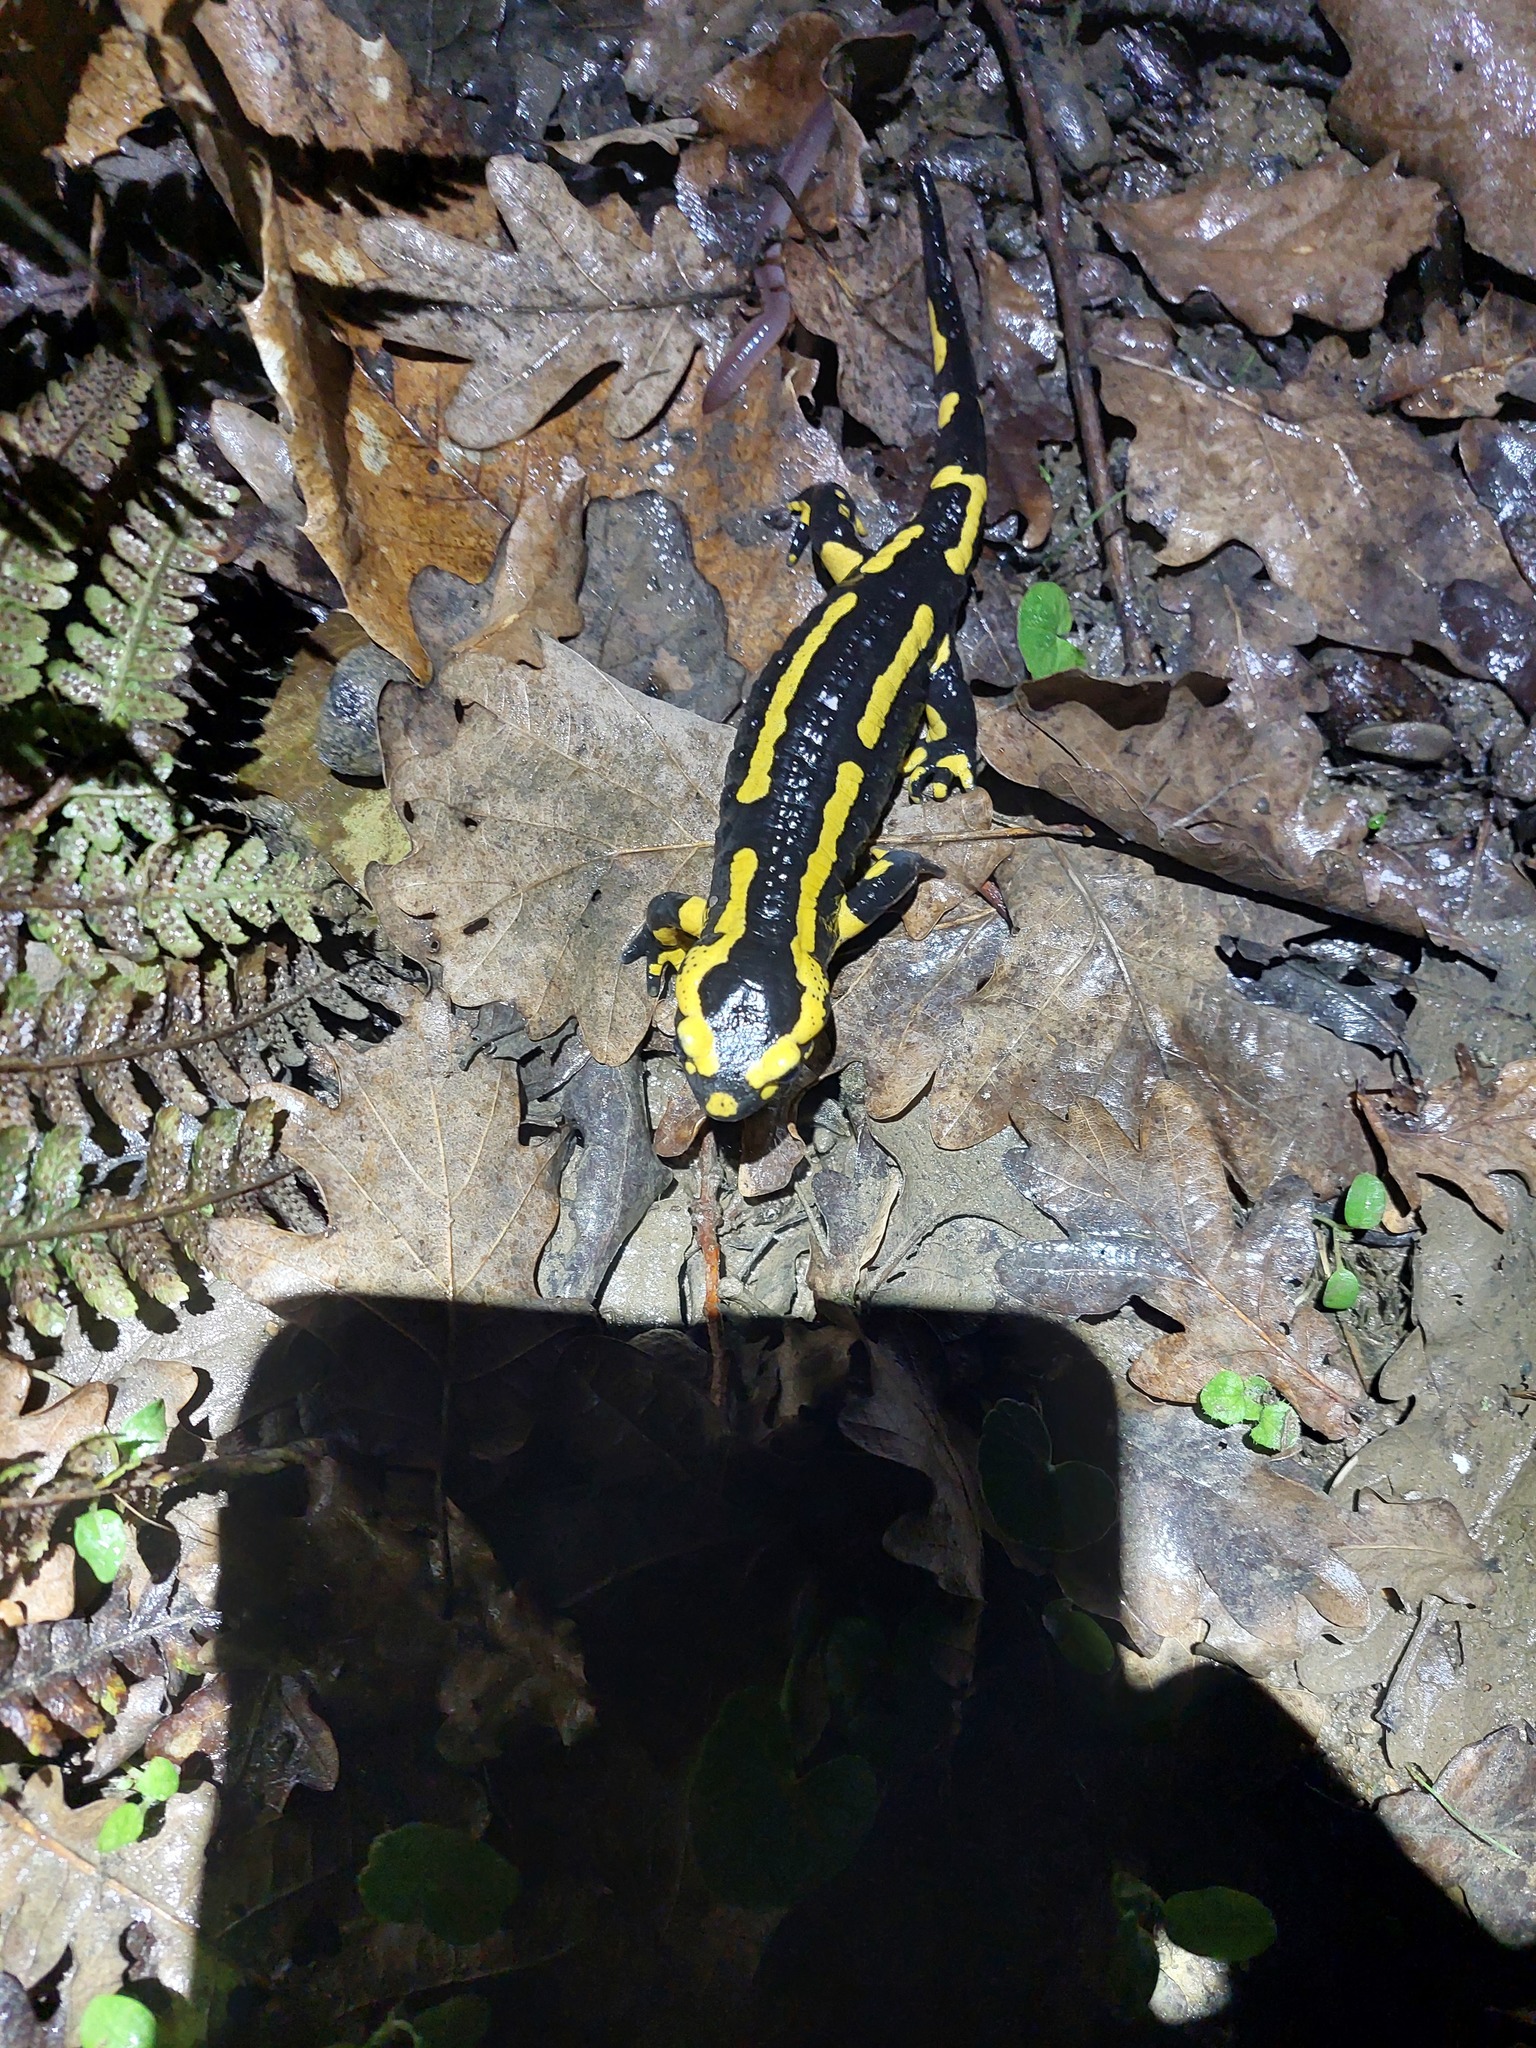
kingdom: Animalia
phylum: Chordata
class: Amphibia
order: Caudata
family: Salamandridae
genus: Salamandra
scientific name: Salamandra salamandra
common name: Fire salamander
